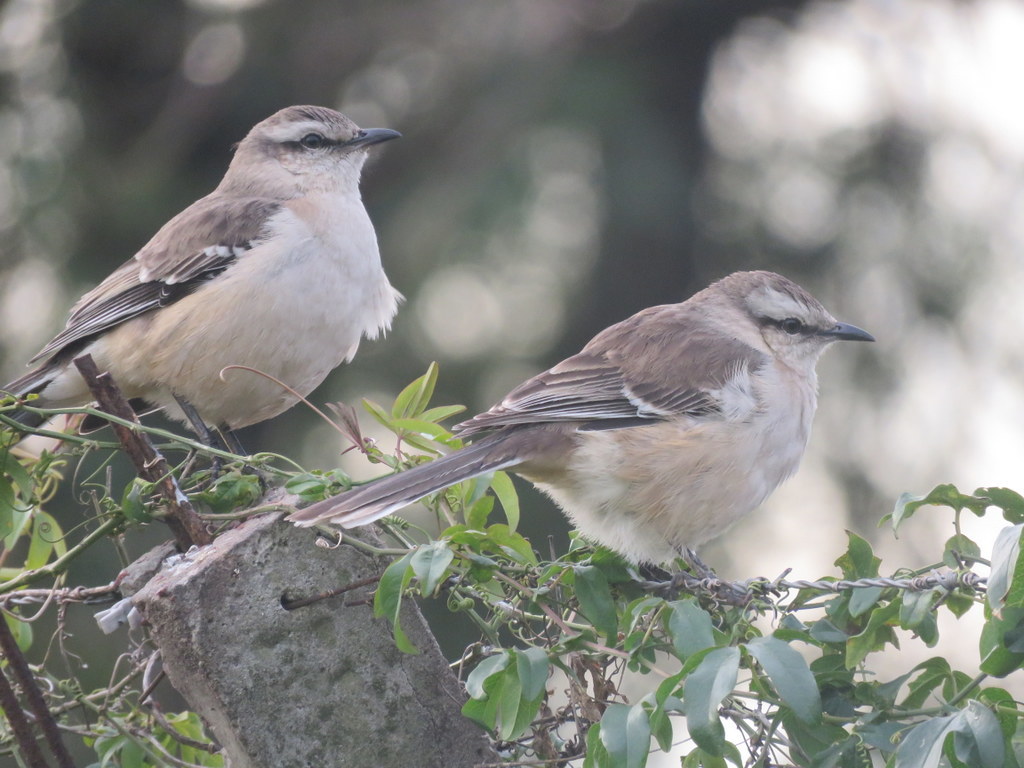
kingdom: Animalia
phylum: Chordata
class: Aves
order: Passeriformes
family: Mimidae
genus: Mimus
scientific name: Mimus saturninus
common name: Chalk-browed mockingbird
